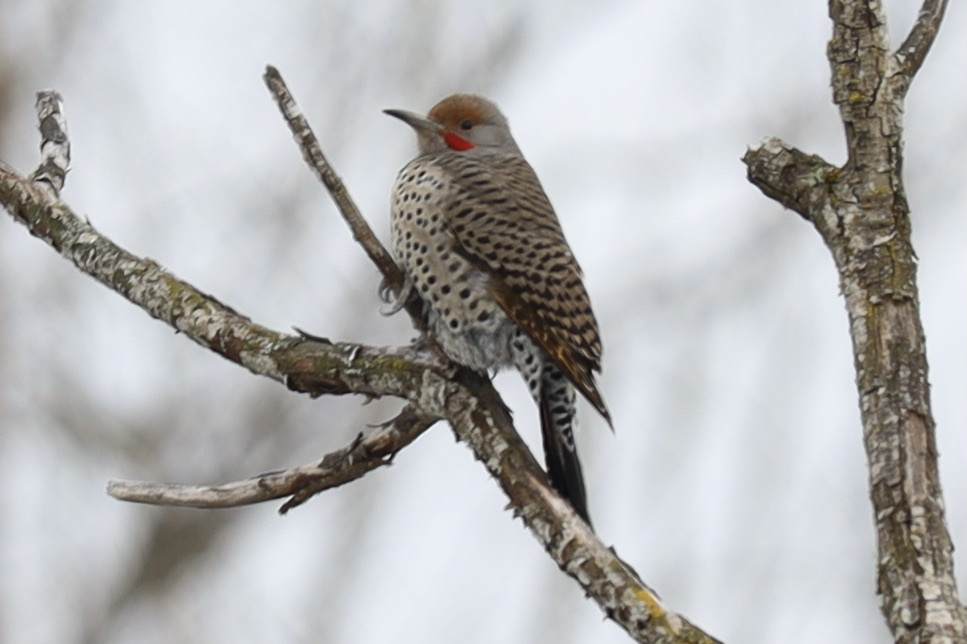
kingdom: Animalia
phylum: Chordata
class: Aves
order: Piciformes
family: Picidae
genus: Colaptes
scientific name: Colaptes auratus
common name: Northern flicker
